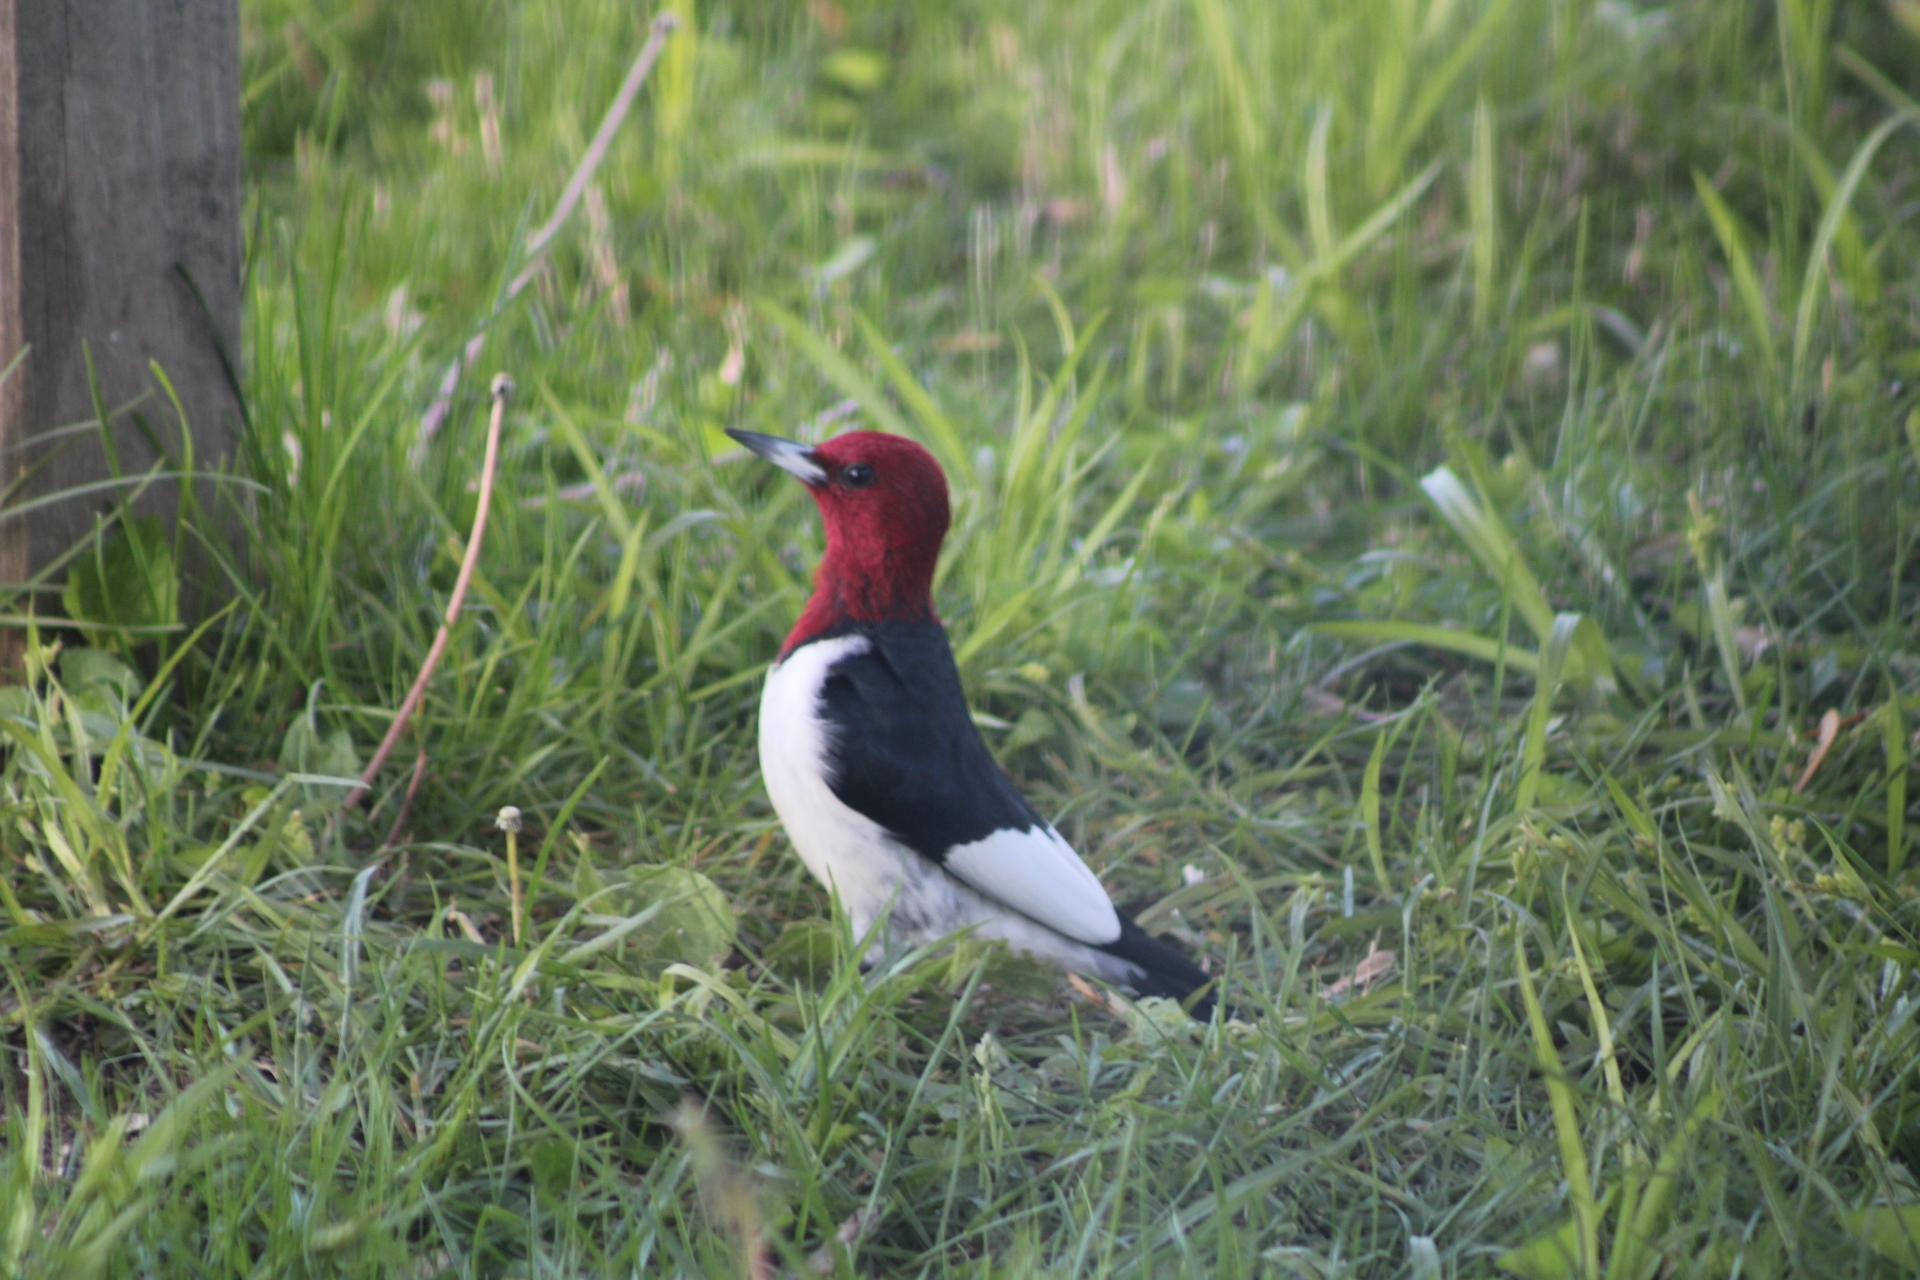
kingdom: Animalia
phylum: Chordata
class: Aves
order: Piciformes
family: Picidae
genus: Melanerpes
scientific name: Melanerpes erythrocephalus
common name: Red-headed woodpecker
